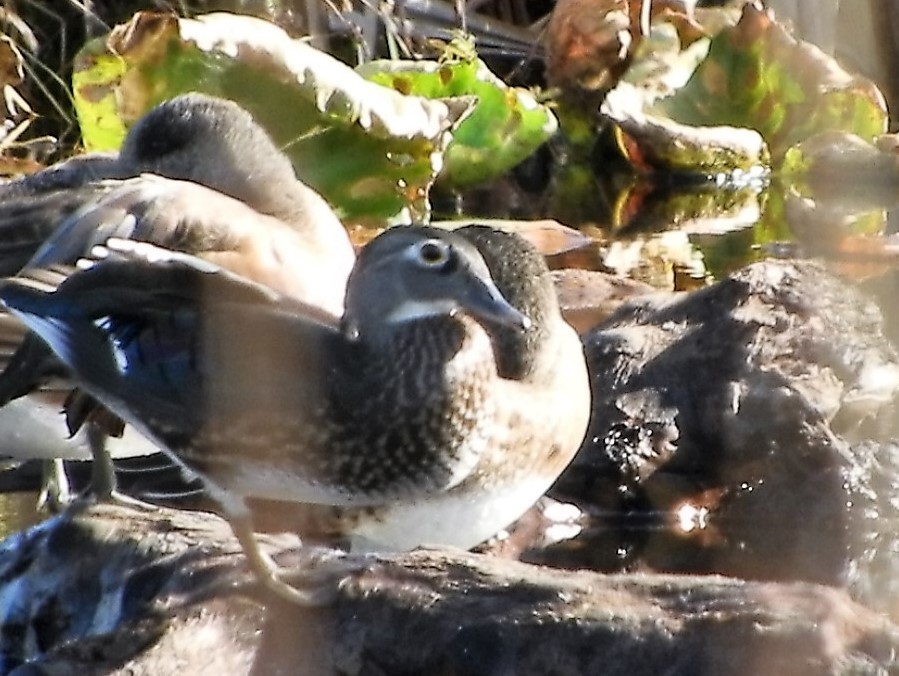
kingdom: Animalia
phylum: Chordata
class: Aves
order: Anseriformes
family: Anatidae
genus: Aix
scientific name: Aix sponsa
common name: Wood duck
